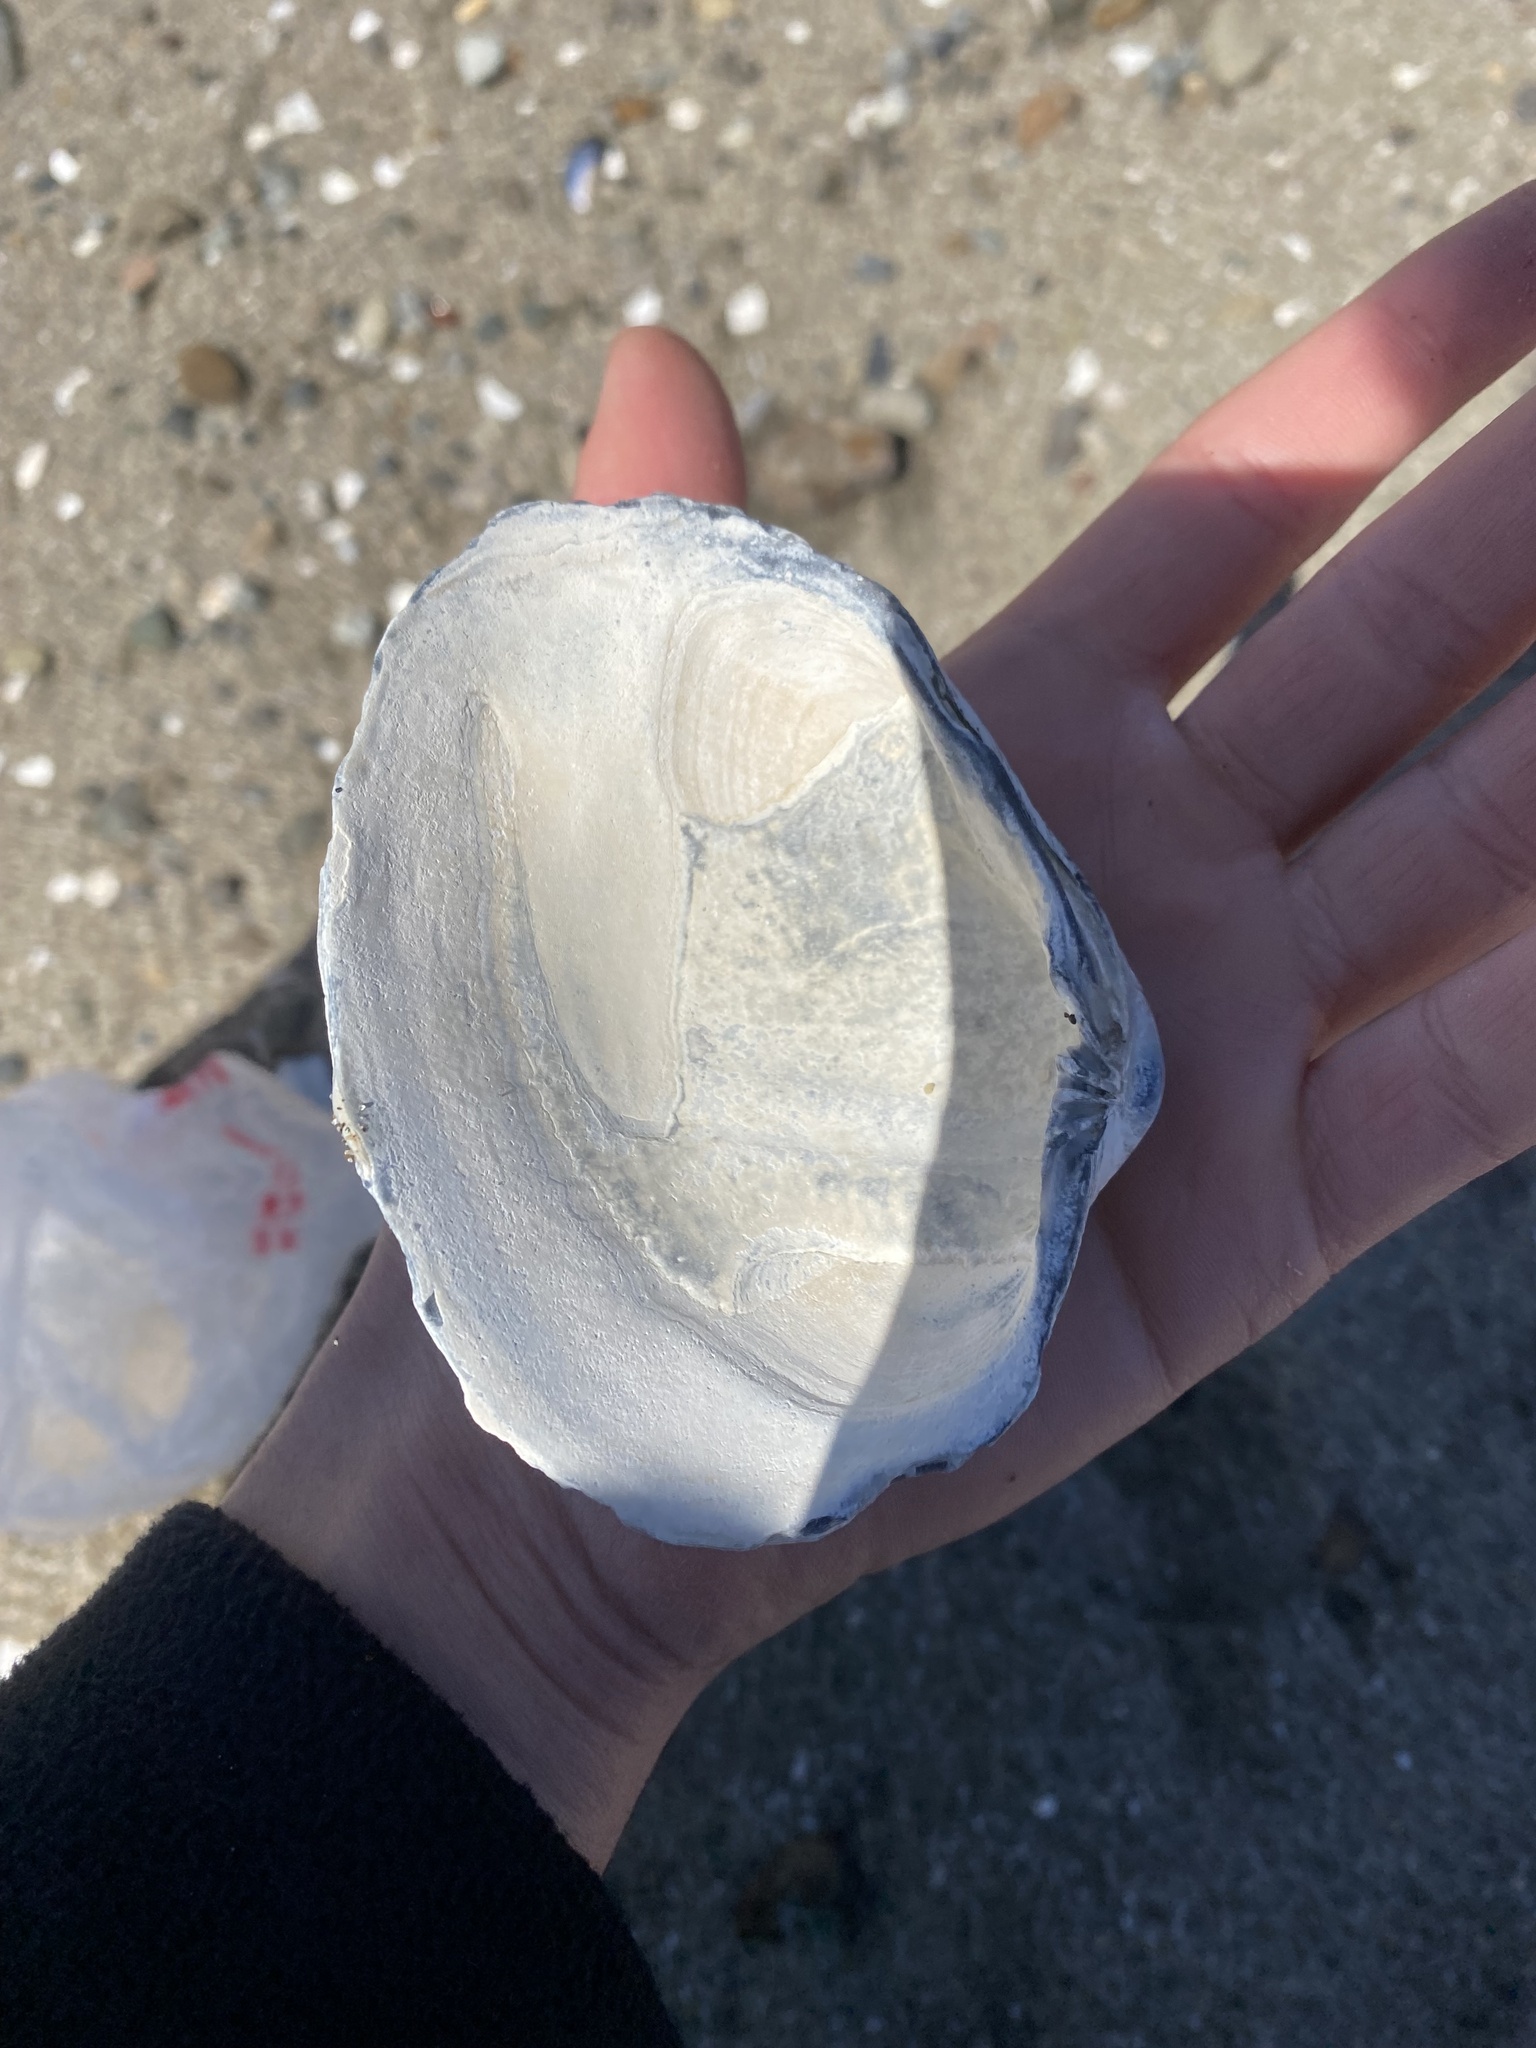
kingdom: Animalia
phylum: Mollusca
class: Bivalvia
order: Venerida
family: Veneridae
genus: Saxidomus
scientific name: Saxidomus nuttalli
